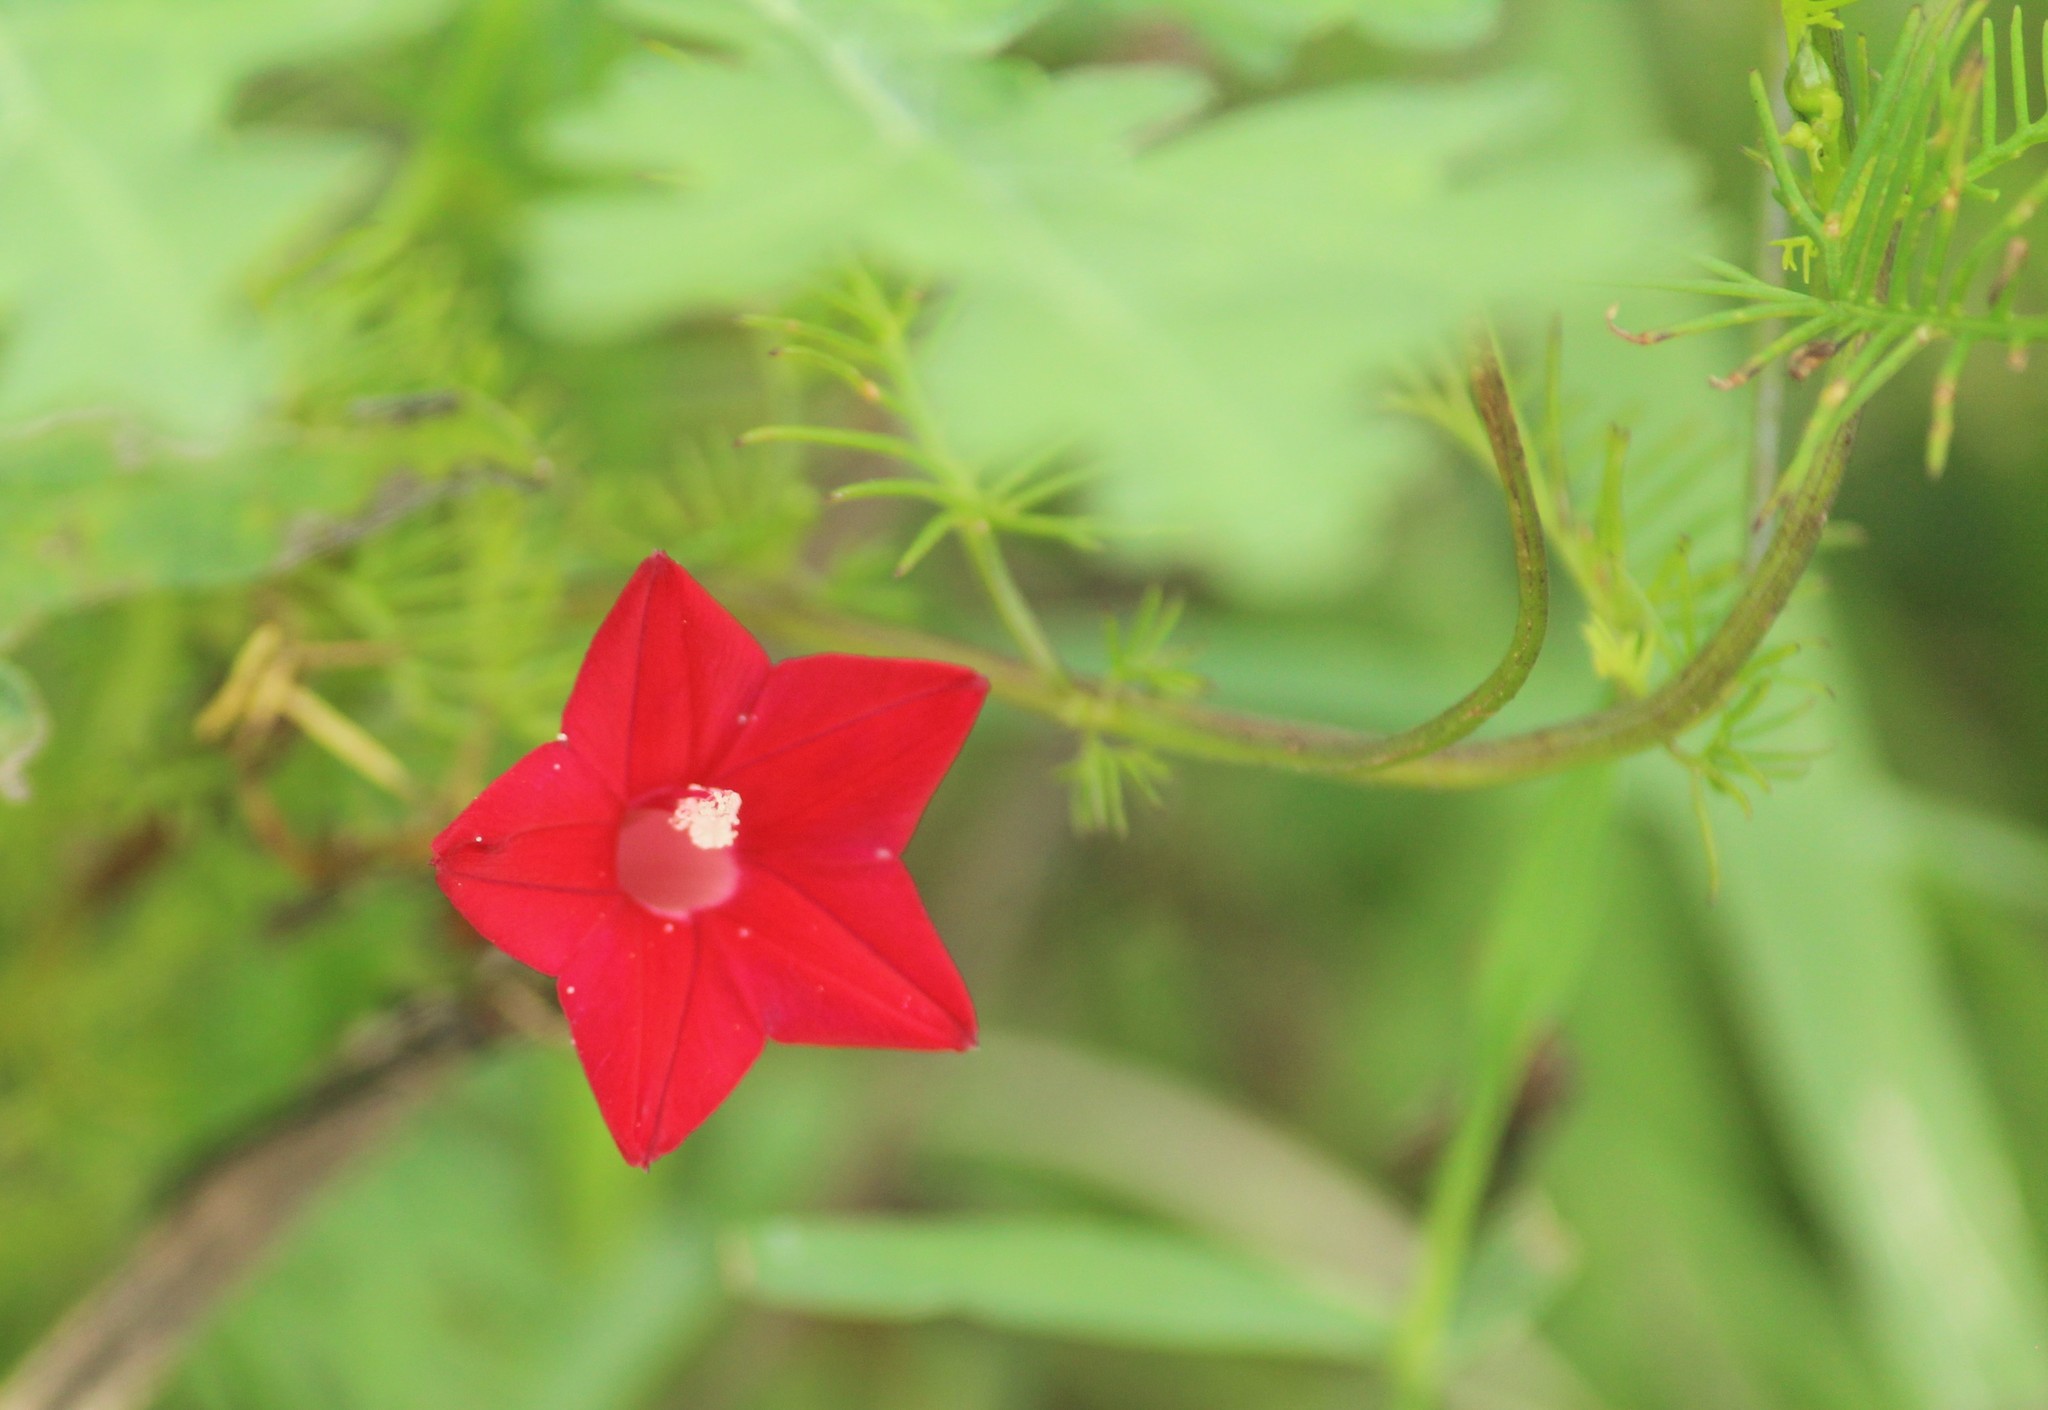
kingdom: Plantae
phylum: Tracheophyta
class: Magnoliopsida
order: Solanales
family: Convolvulaceae
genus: Ipomoea
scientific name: Ipomoea quamoclit
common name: Cypress vine
